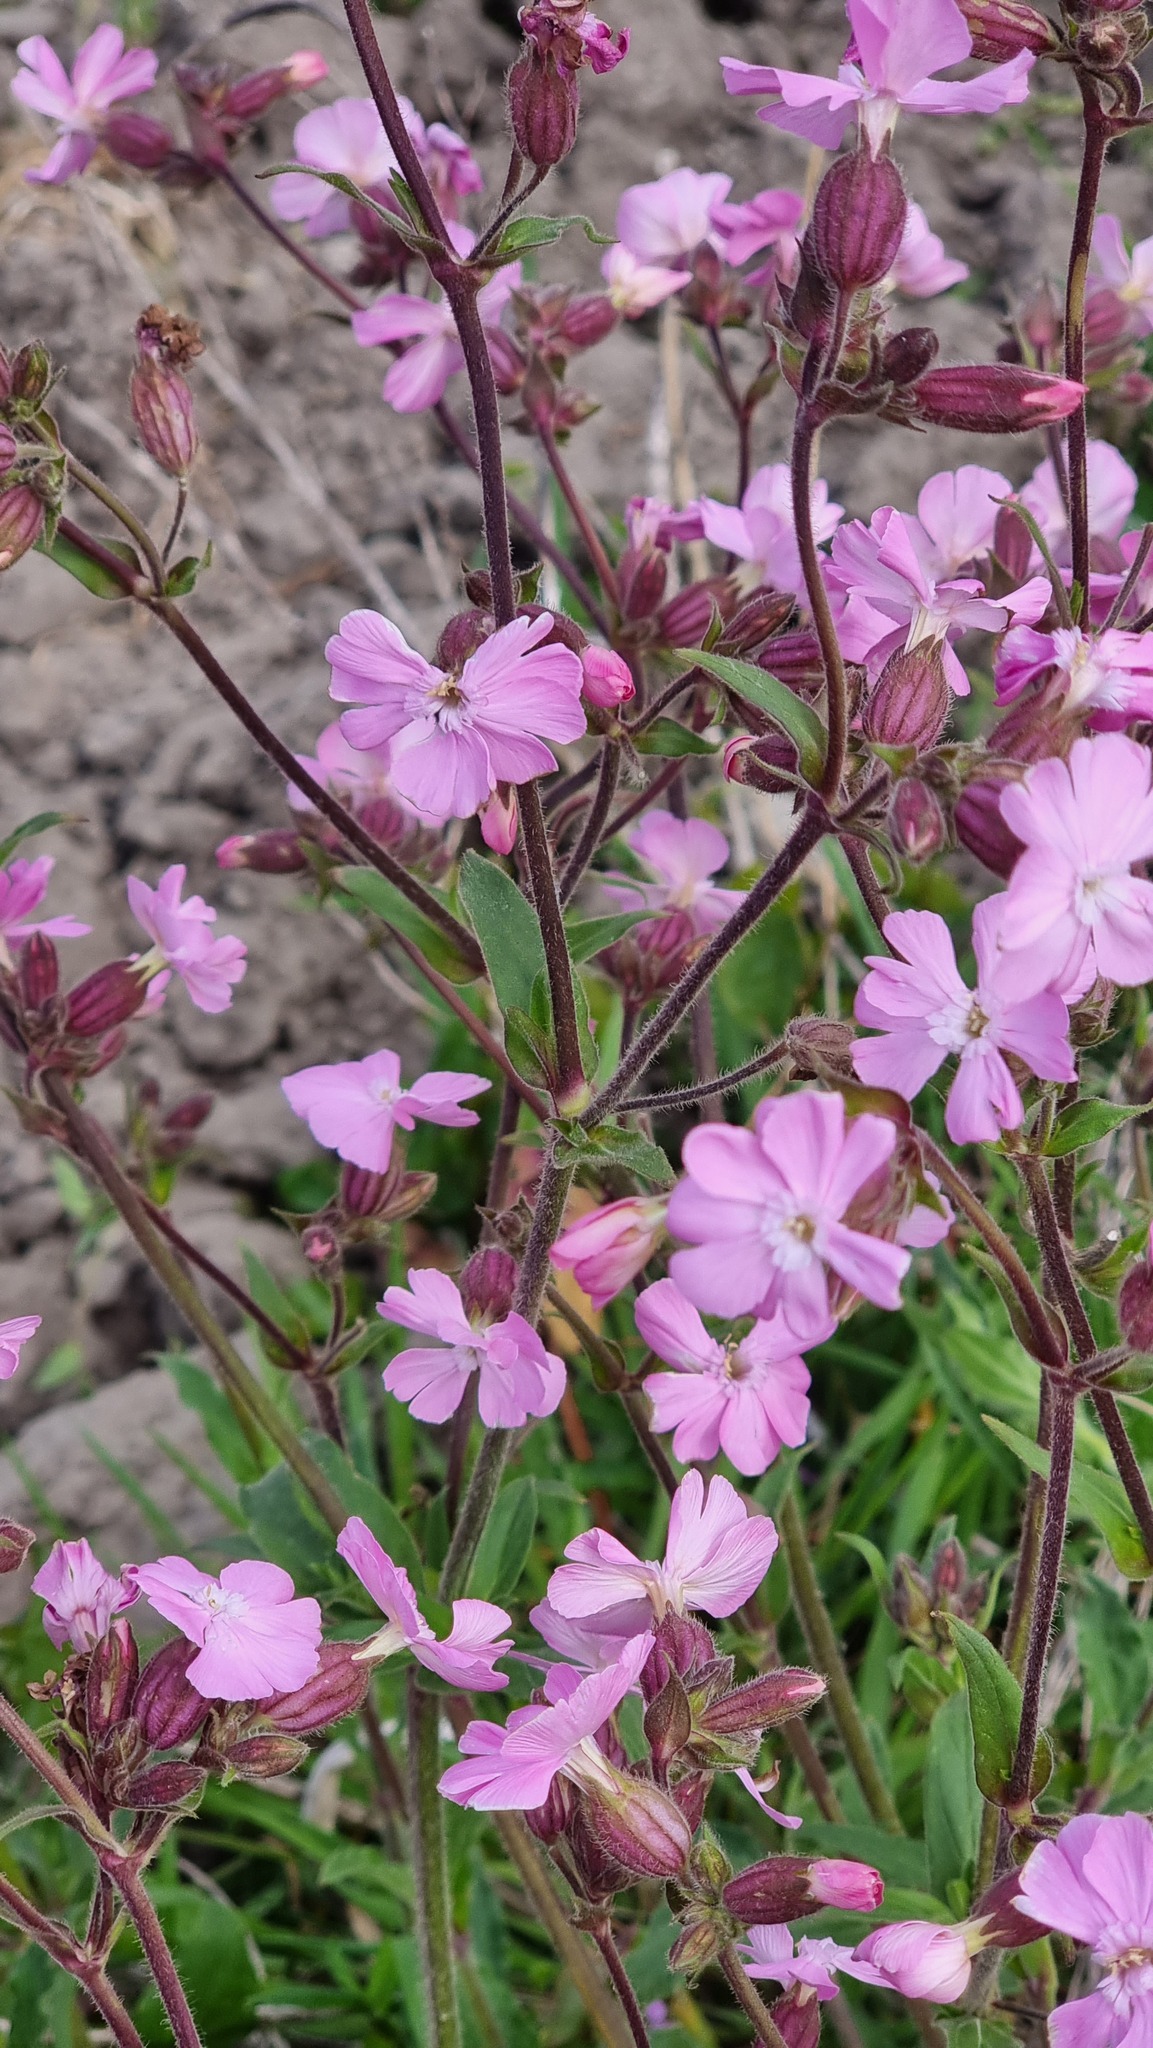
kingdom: Plantae
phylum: Tracheophyta
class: Magnoliopsida
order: Caryophyllales
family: Caryophyllaceae
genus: Silene
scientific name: Silene dioica
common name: Red campion
